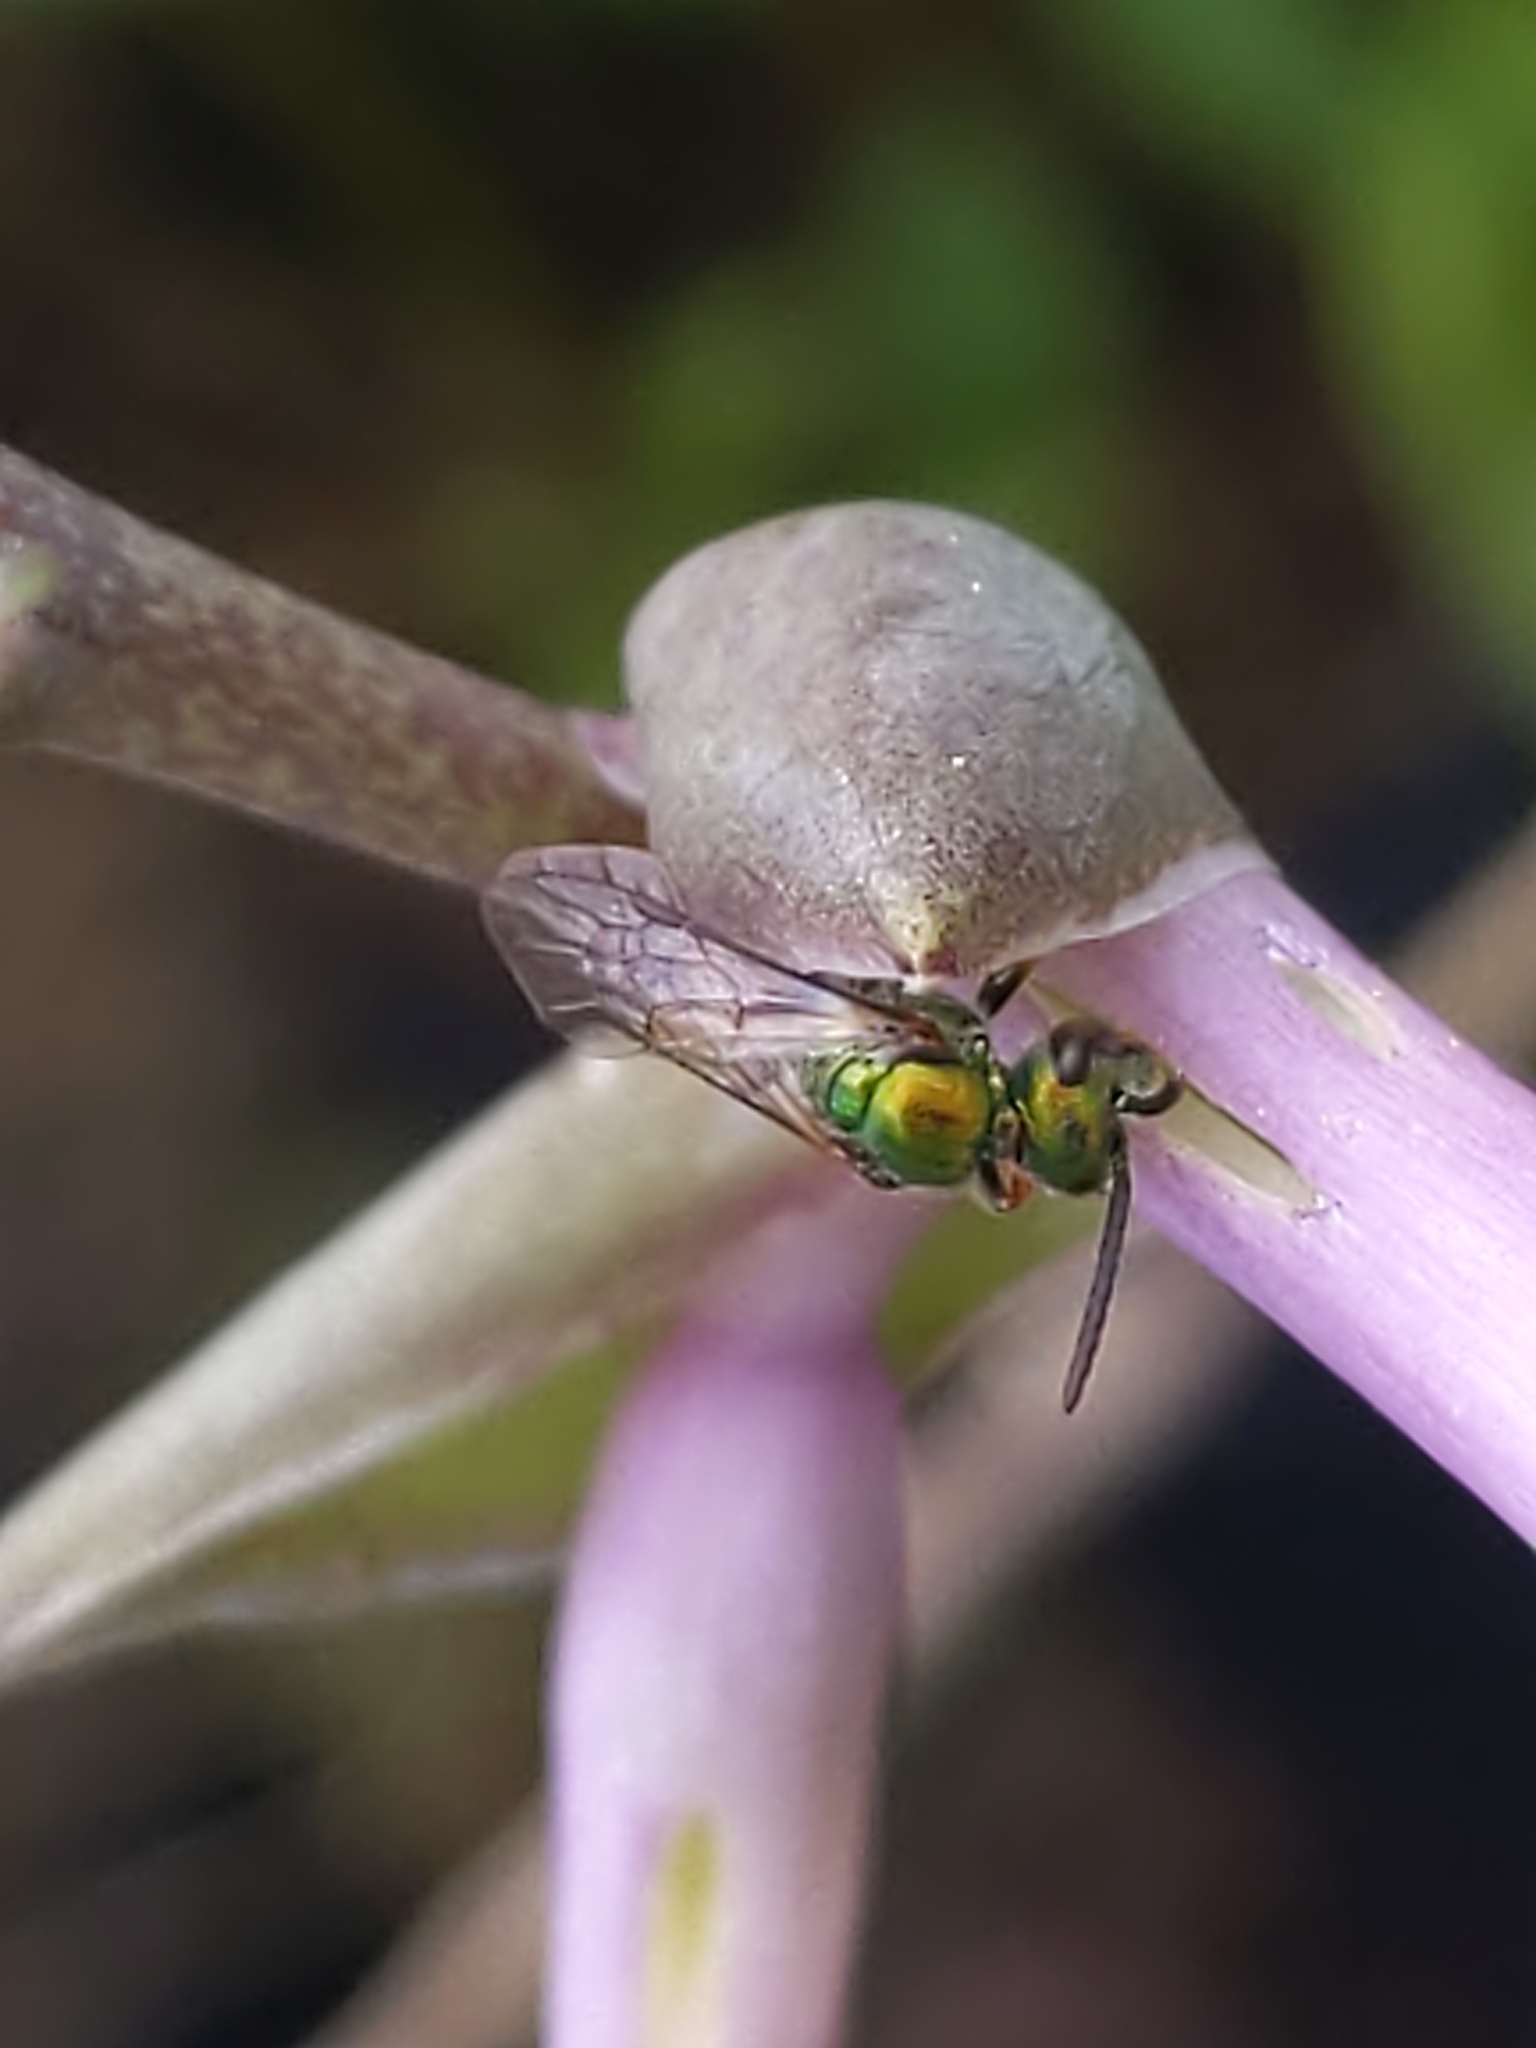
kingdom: Animalia
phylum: Arthropoda
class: Insecta
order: Hymenoptera
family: Halictidae
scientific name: Halictidae
